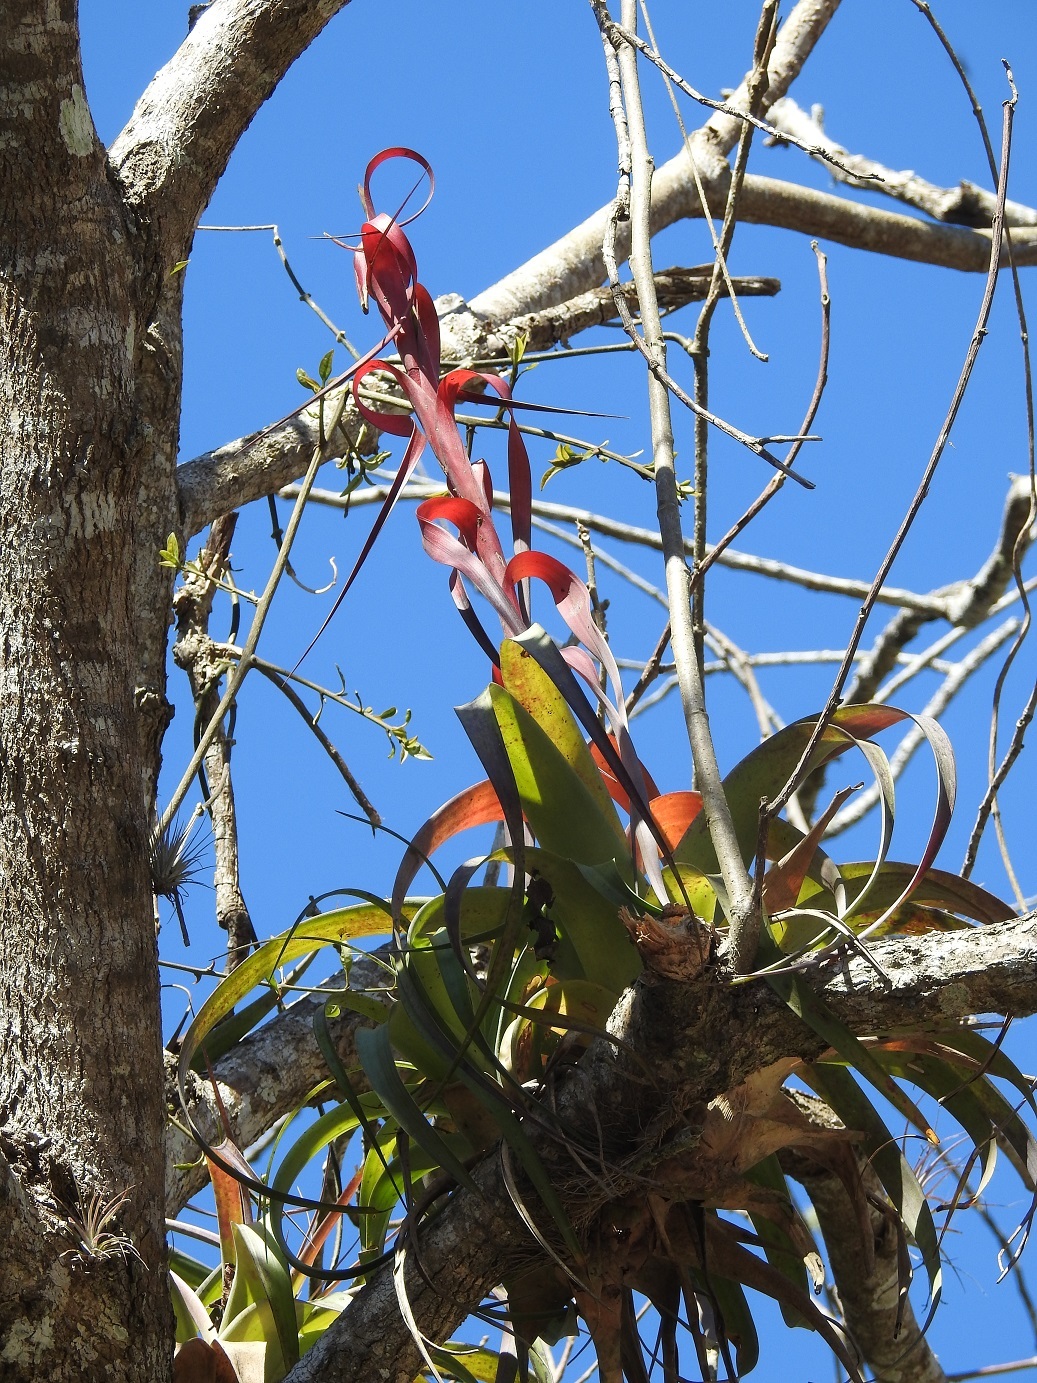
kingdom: Plantae
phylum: Tracheophyta
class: Liliopsida
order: Poales
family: Bromeliaceae
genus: Tillandsia
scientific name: Tillandsia belloensis
